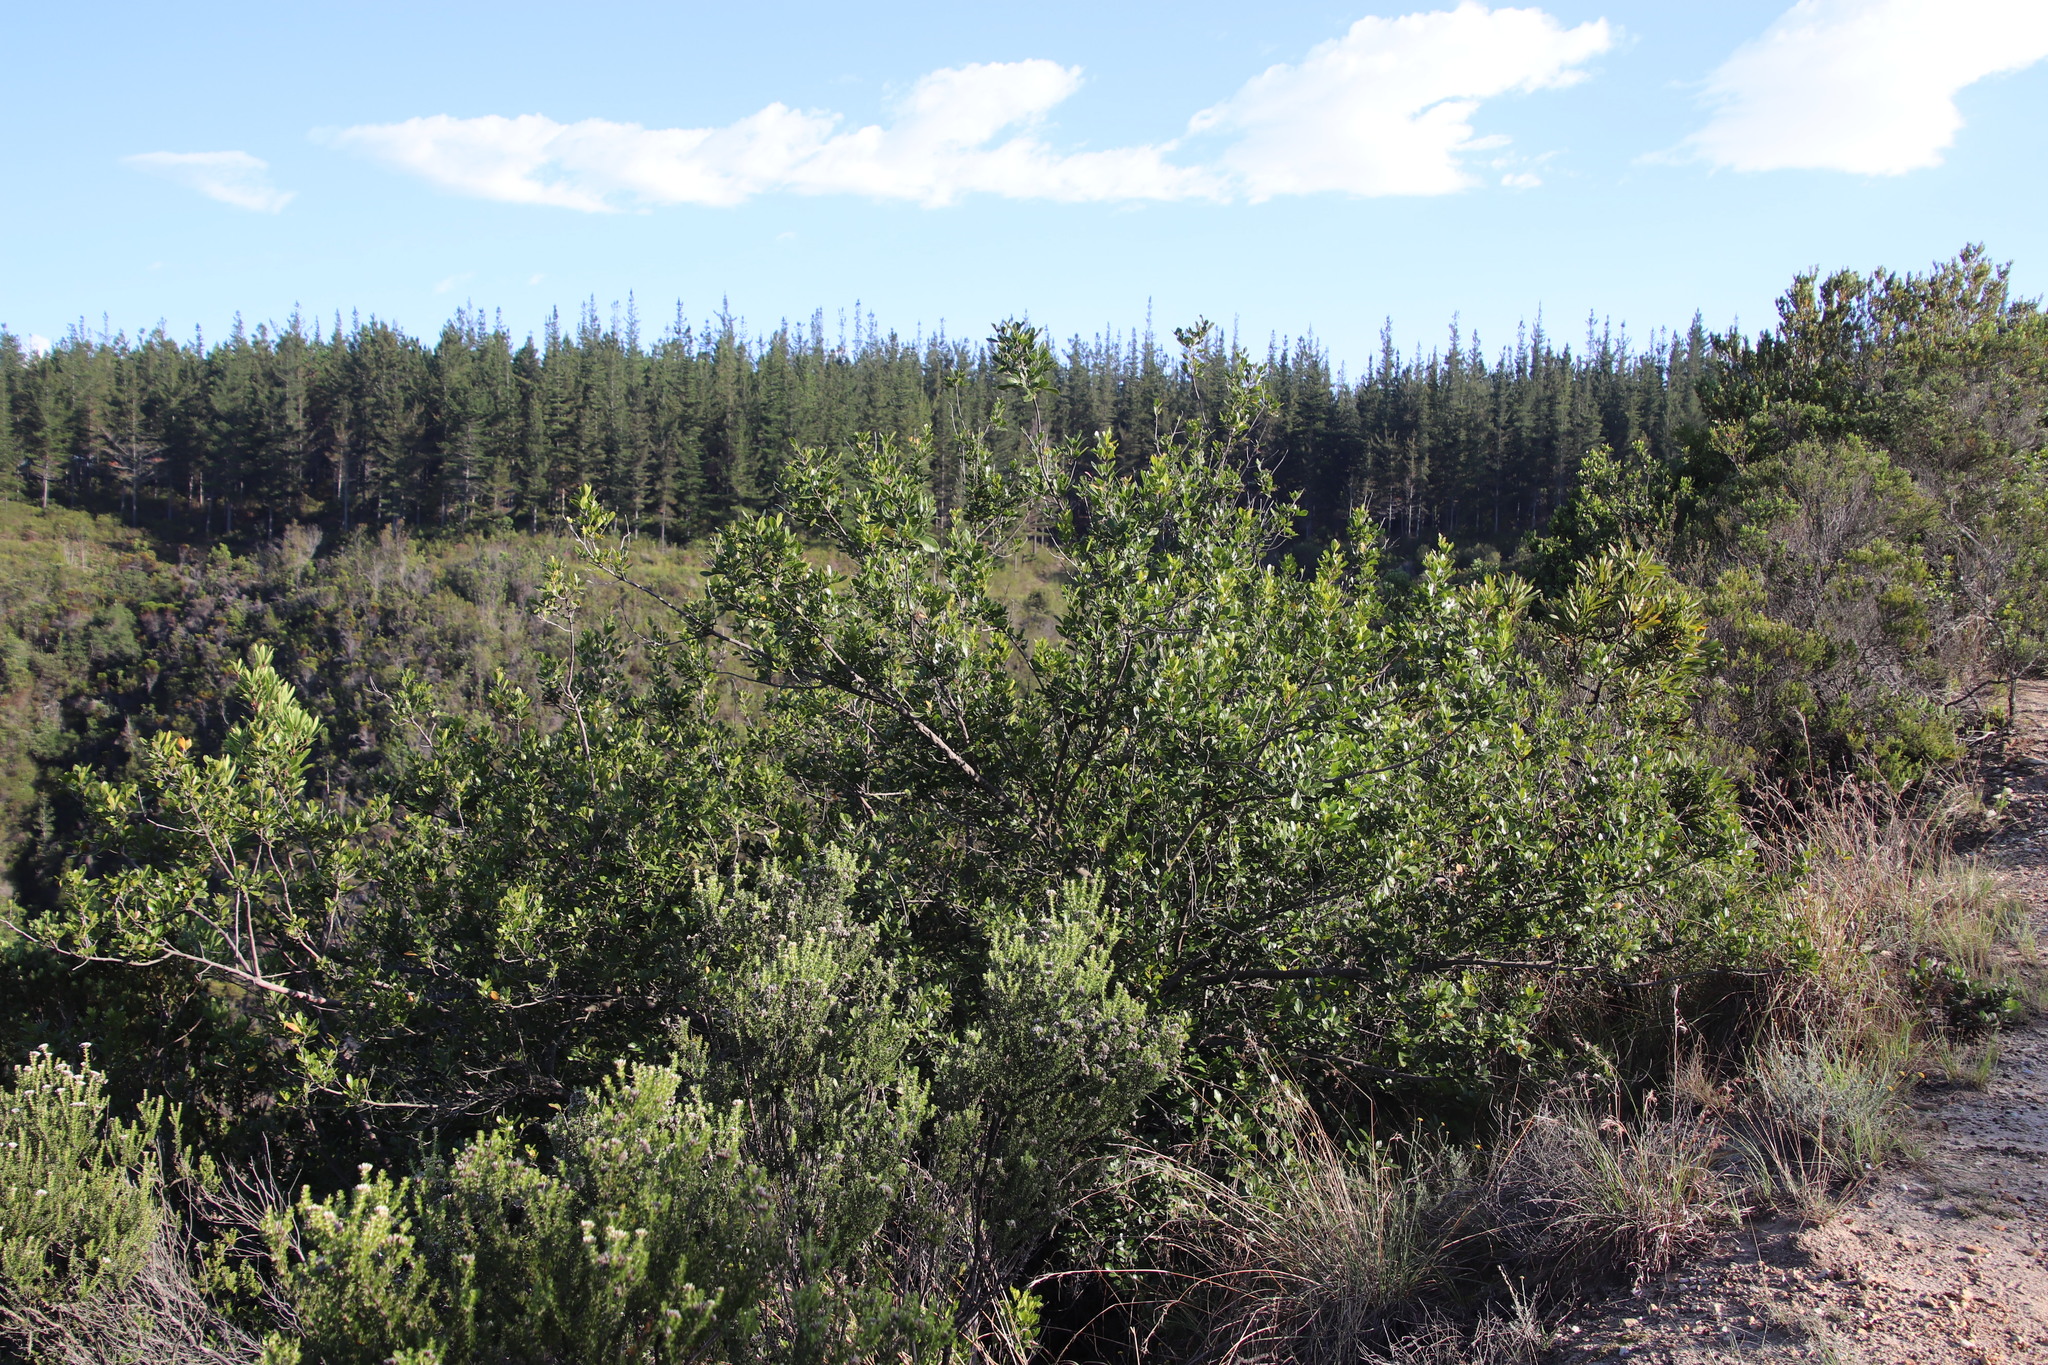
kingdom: Plantae
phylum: Tracheophyta
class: Magnoliopsida
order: Sapindales
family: Anacardiaceae
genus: Searsia
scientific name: Searsia lucida
